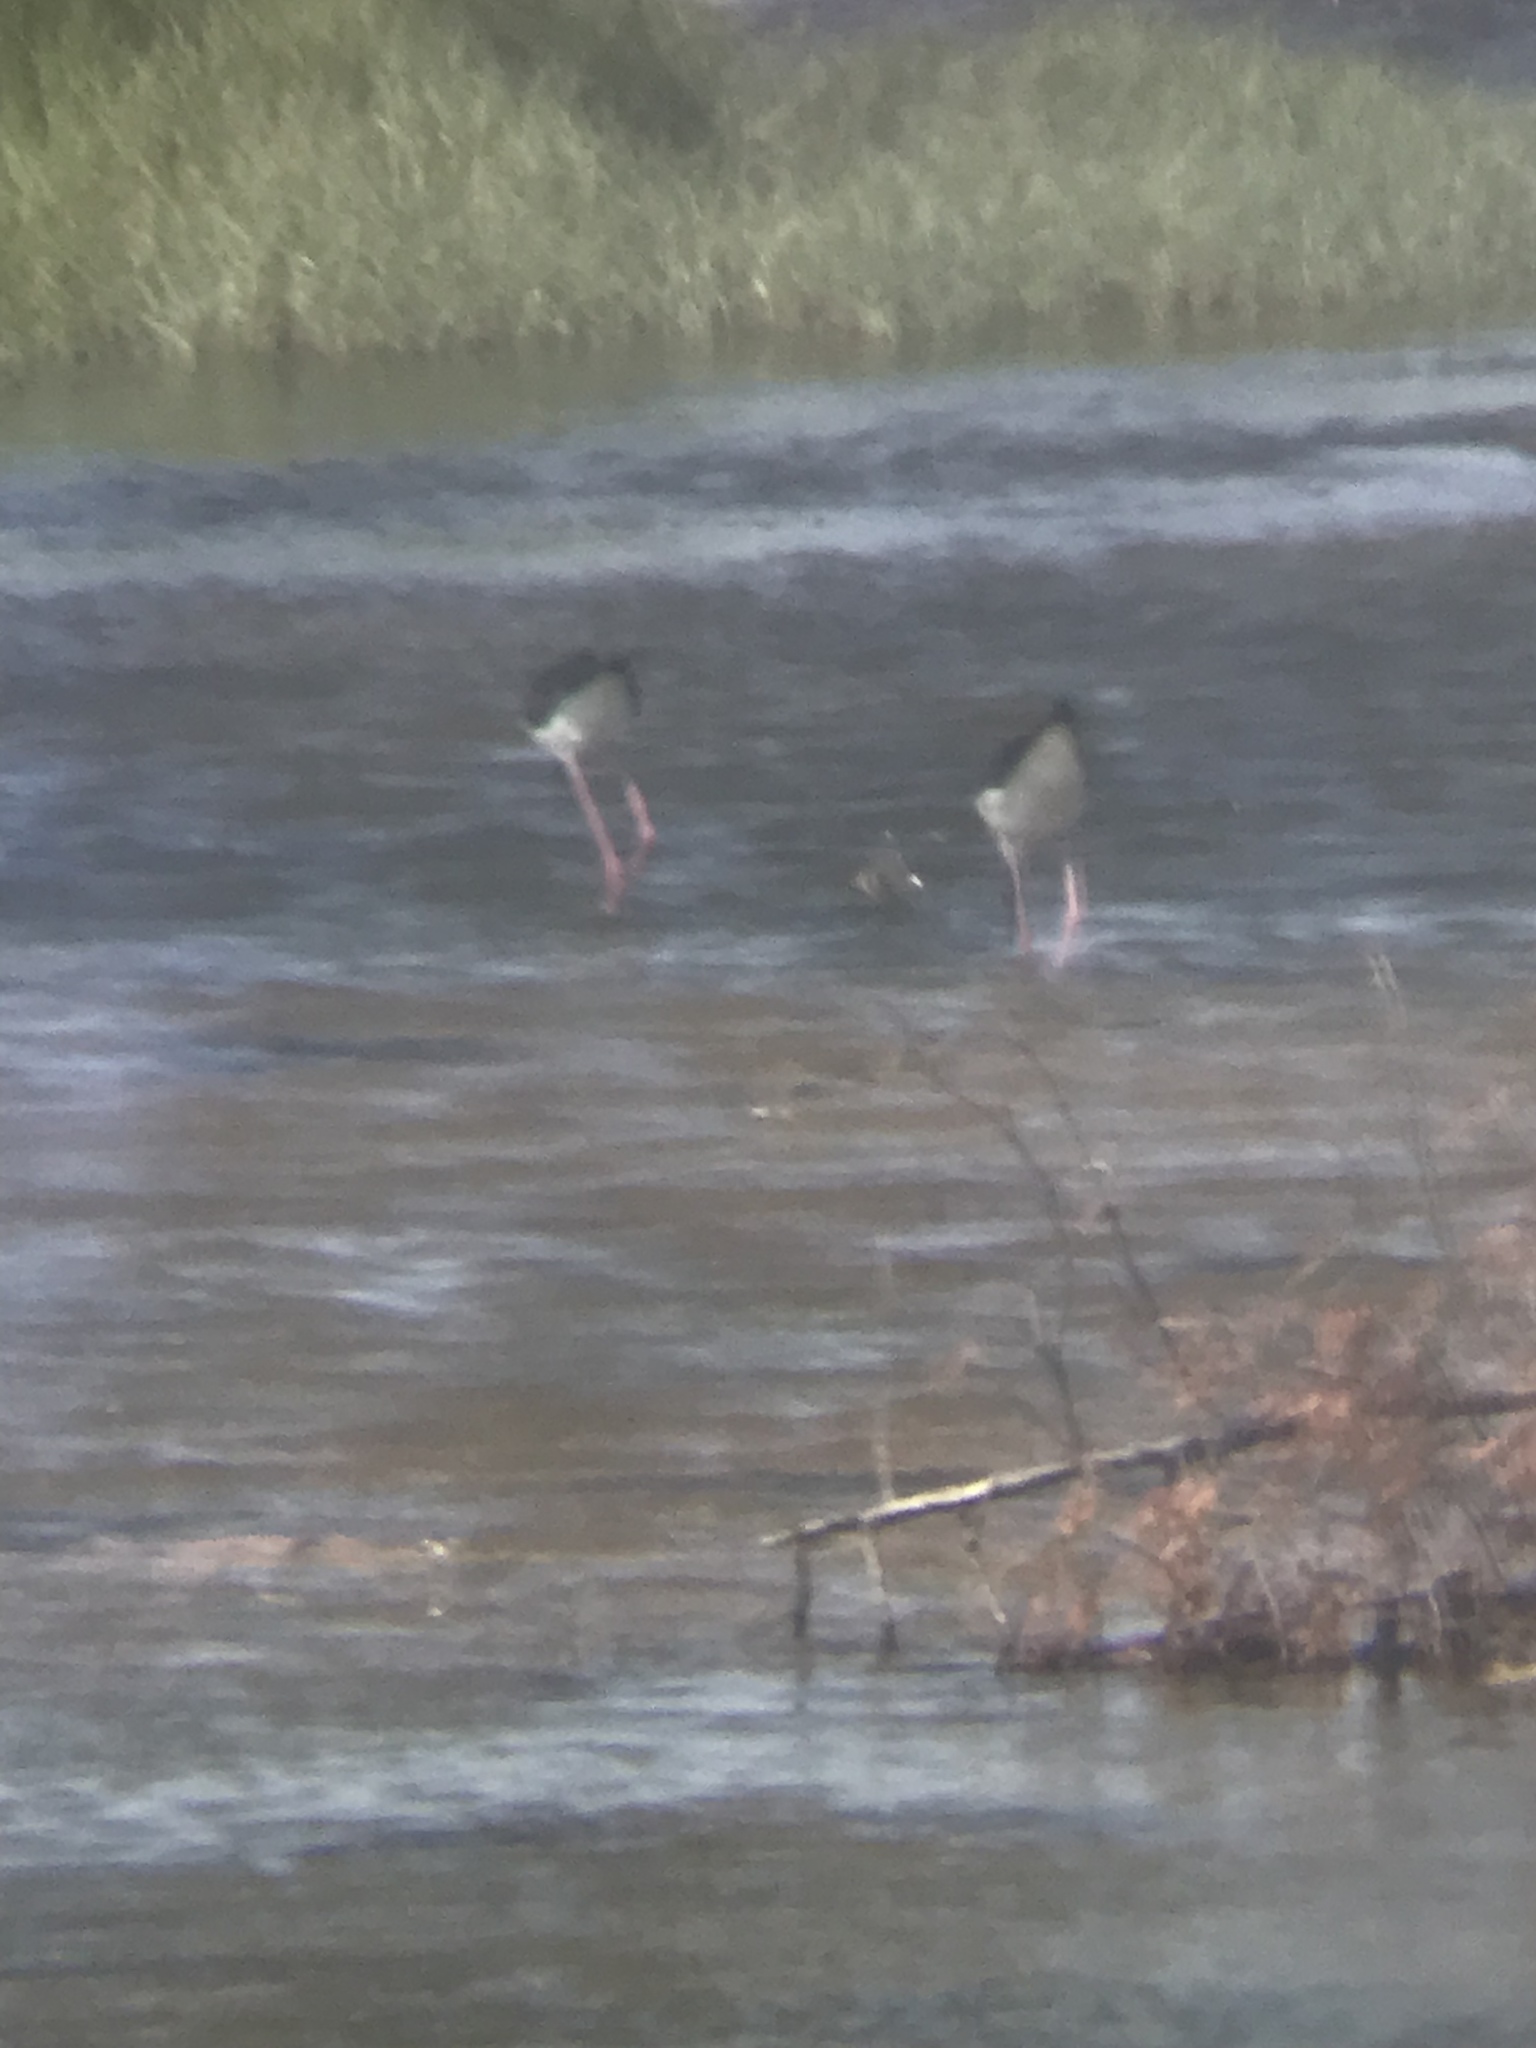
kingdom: Animalia
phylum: Chordata
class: Aves
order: Charadriiformes
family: Recurvirostridae
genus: Himantopus
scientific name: Himantopus mexicanus
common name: Black-necked stilt
